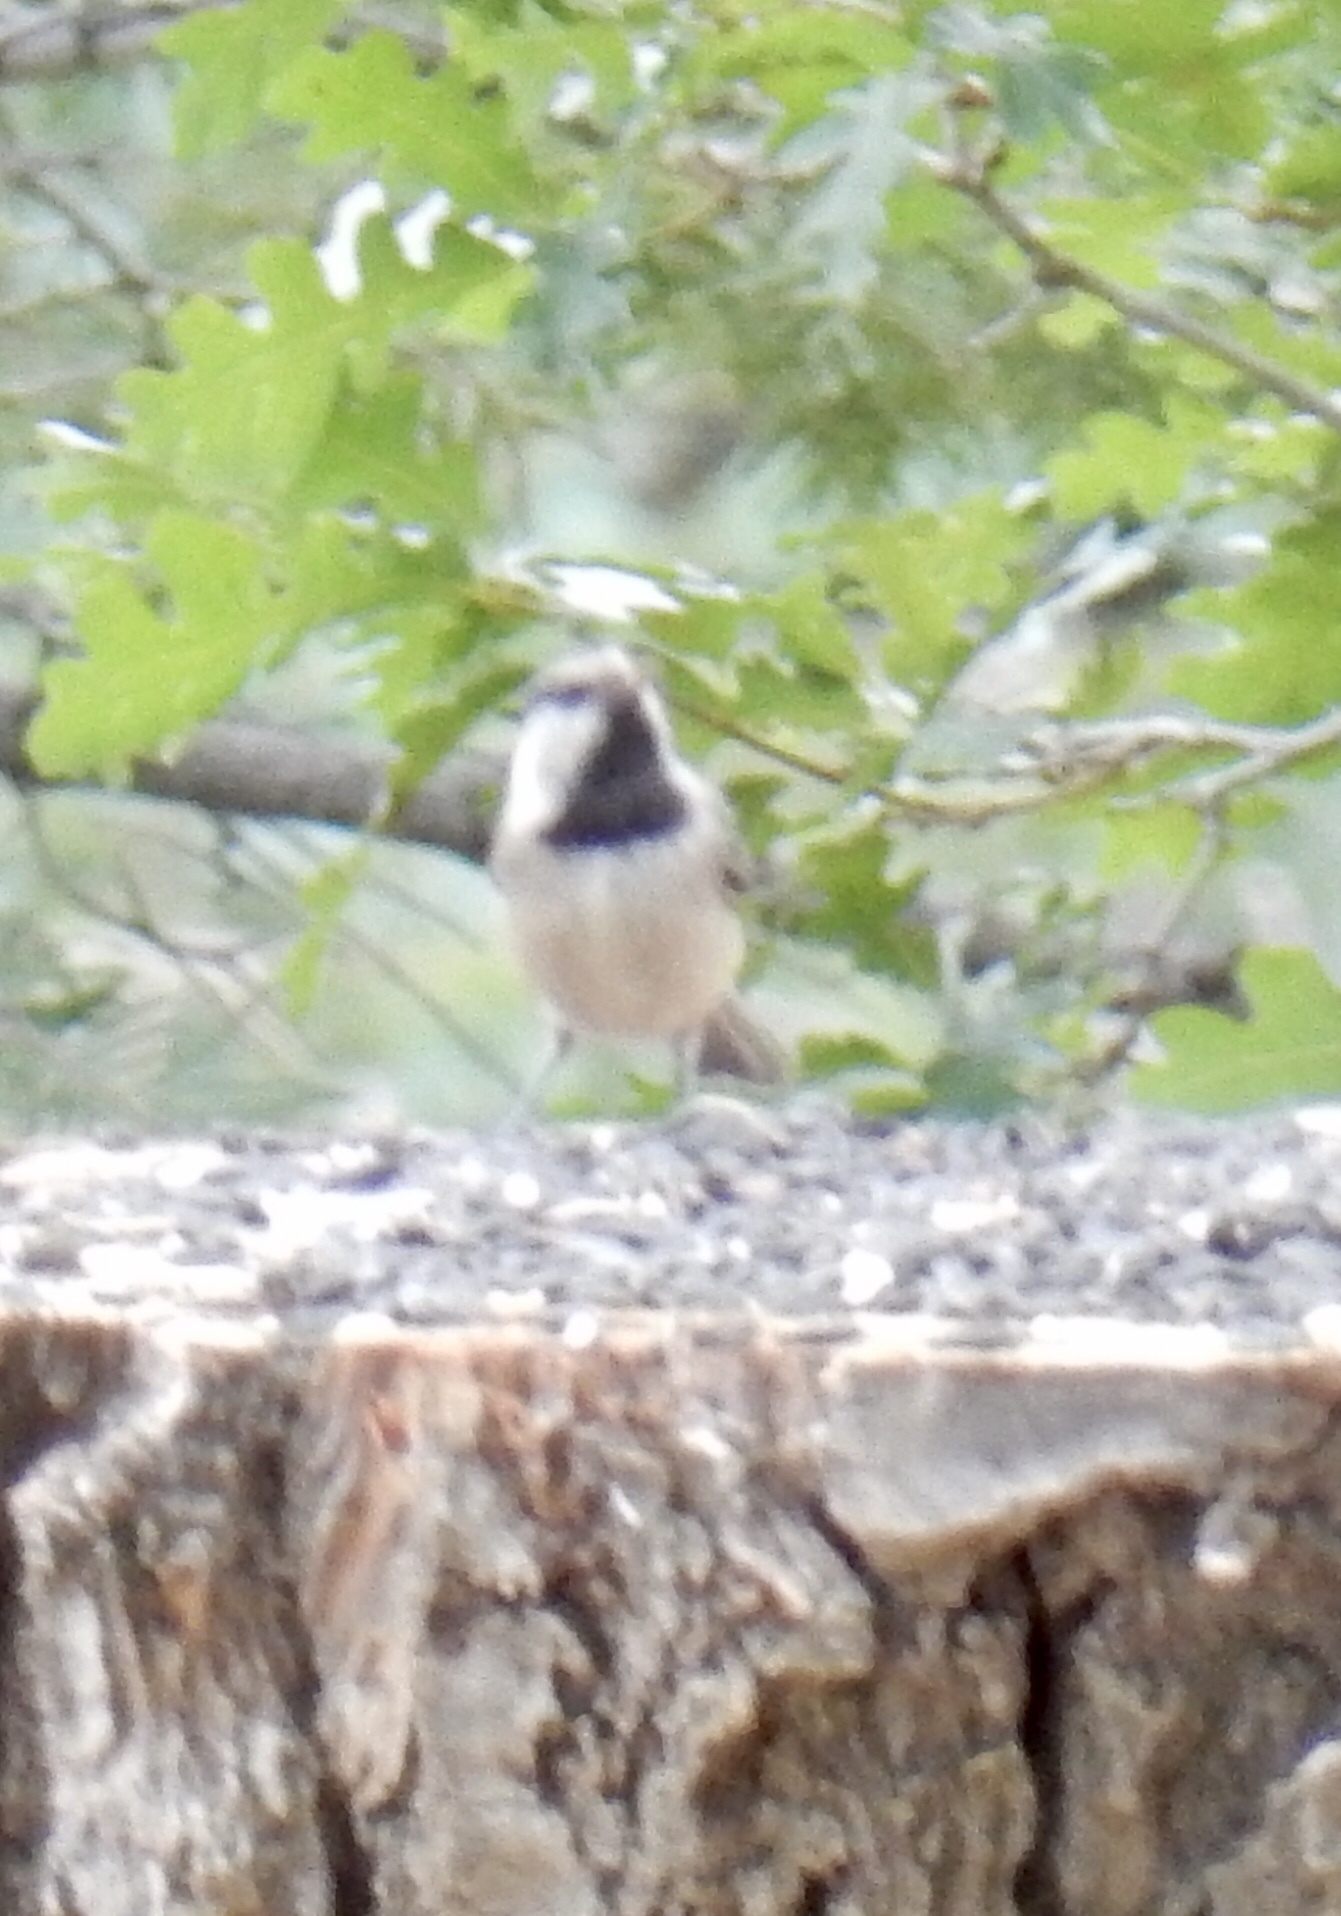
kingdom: Animalia
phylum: Chordata
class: Aves
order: Passeriformes
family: Paridae
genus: Poecile
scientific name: Poecile gambeli
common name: Mountain chickadee
